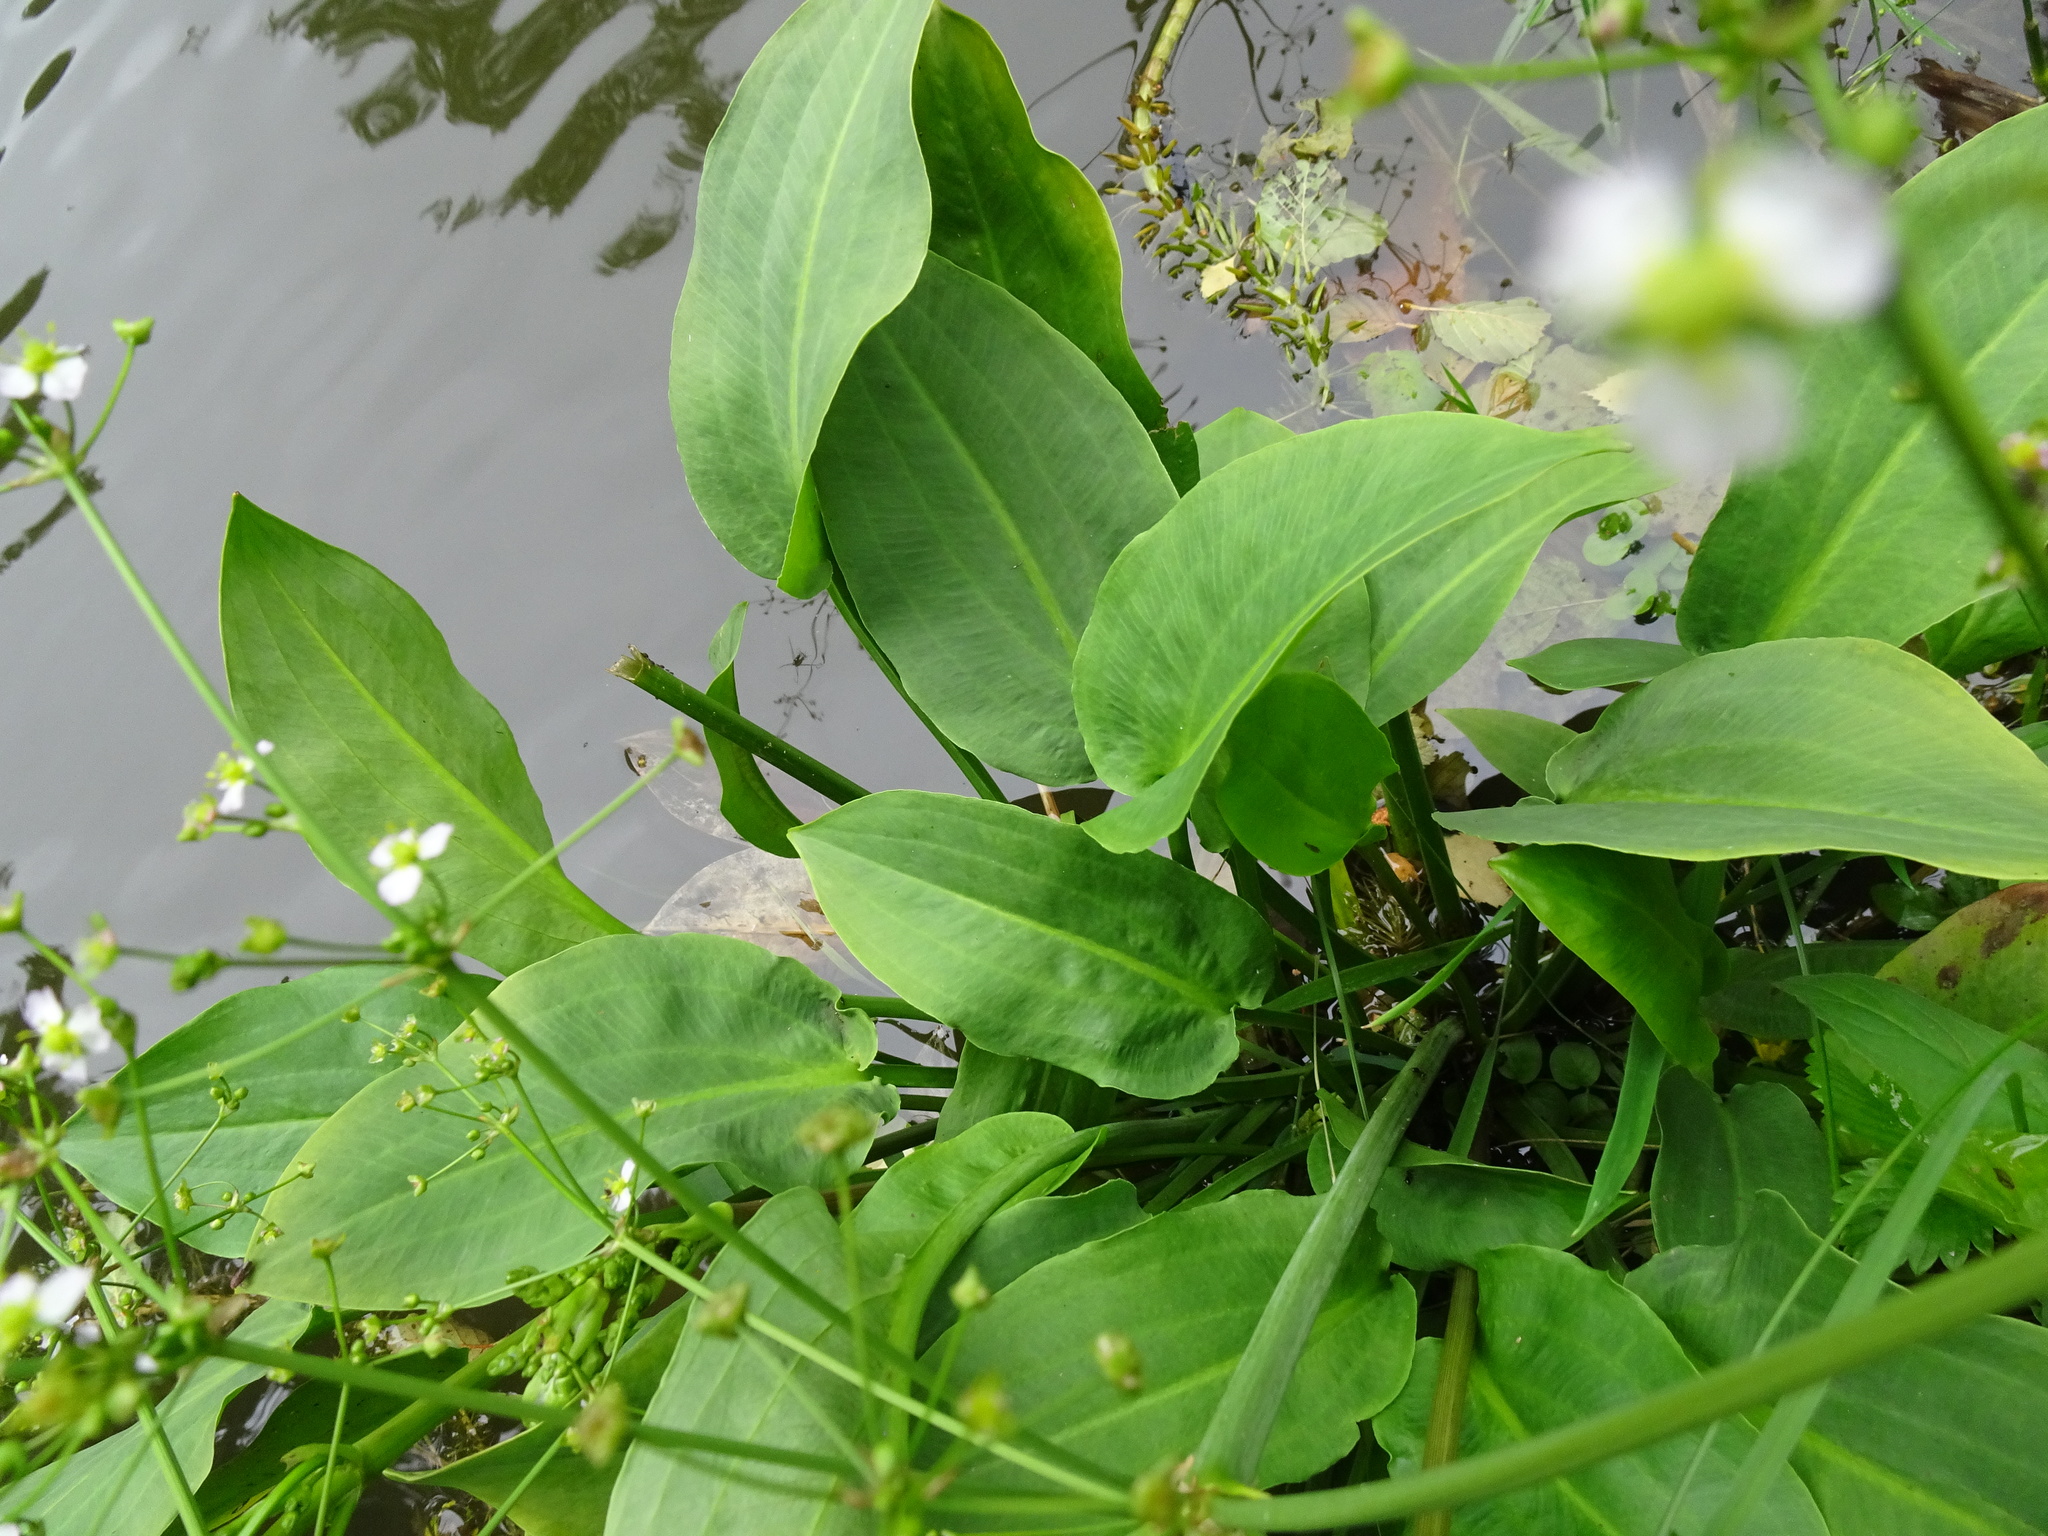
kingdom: Plantae
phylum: Tracheophyta
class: Liliopsida
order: Alismatales
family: Alismataceae
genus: Alisma
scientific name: Alisma plantago-aquatica
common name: Water-plantain
